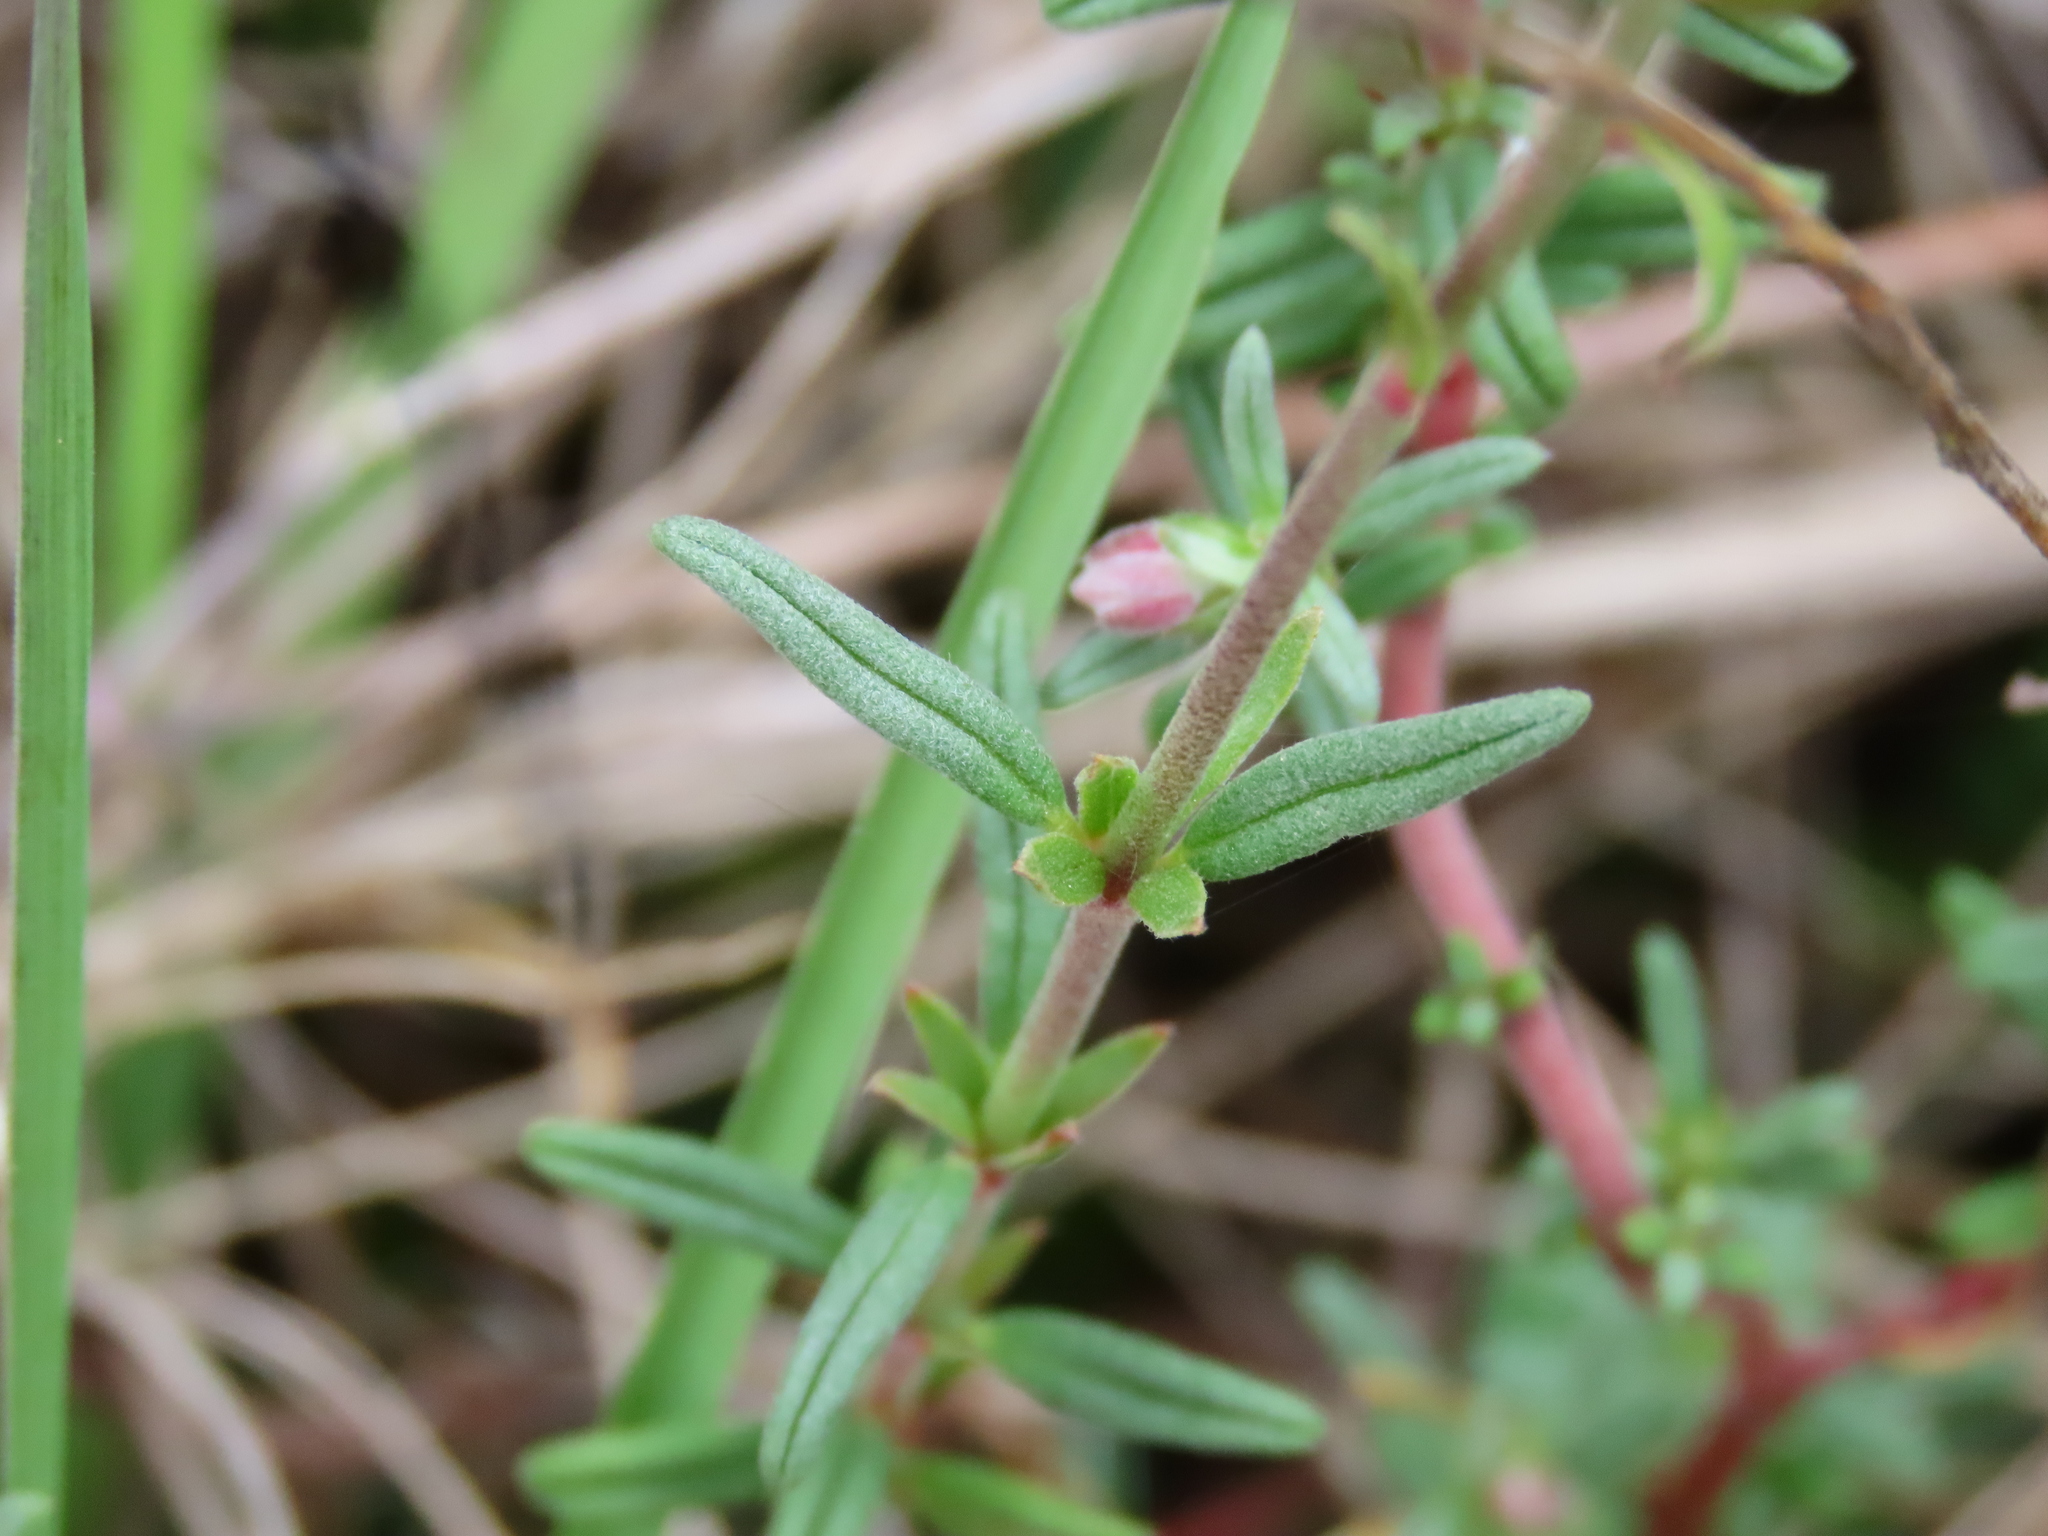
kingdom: Plantae
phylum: Tracheophyta
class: Magnoliopsida
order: Malvales
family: Cistaceae
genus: Helianthemum
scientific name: Helianthemum apenninum
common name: White rock-rose
